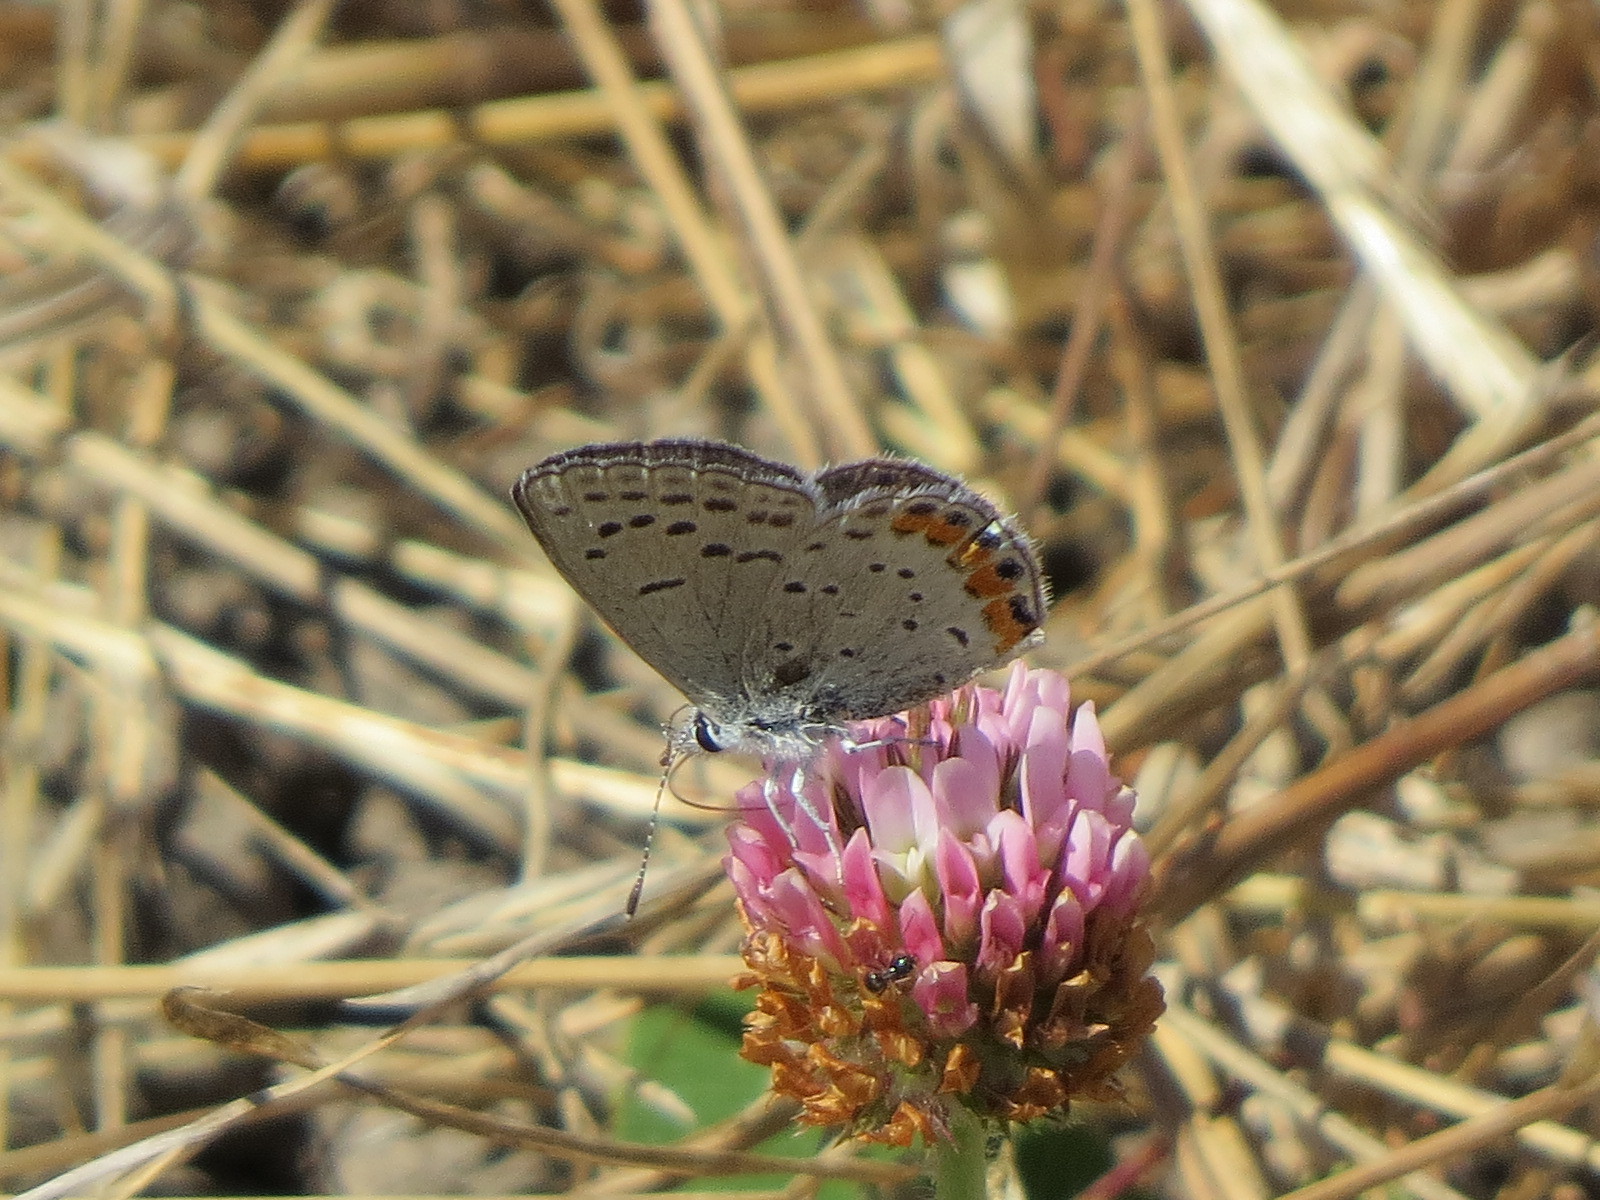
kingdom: Animalia
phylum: Arthropoda
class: Insecta
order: Lepidoptera
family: Lycaenidae
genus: Icaricia
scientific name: Icaricia acmon
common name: Acmon blue
